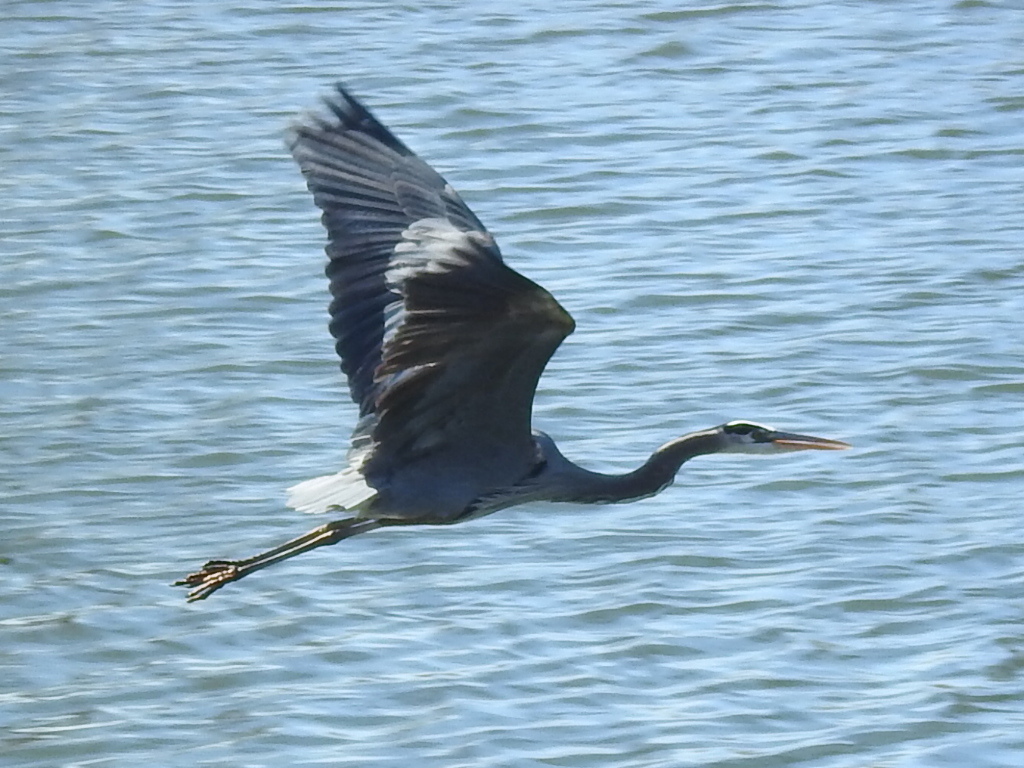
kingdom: Animalia
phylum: Chordata
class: Aves
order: Pelecaniformes
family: Ardeidae
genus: Ardea
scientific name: Ardea herodias
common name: Great blue heron
